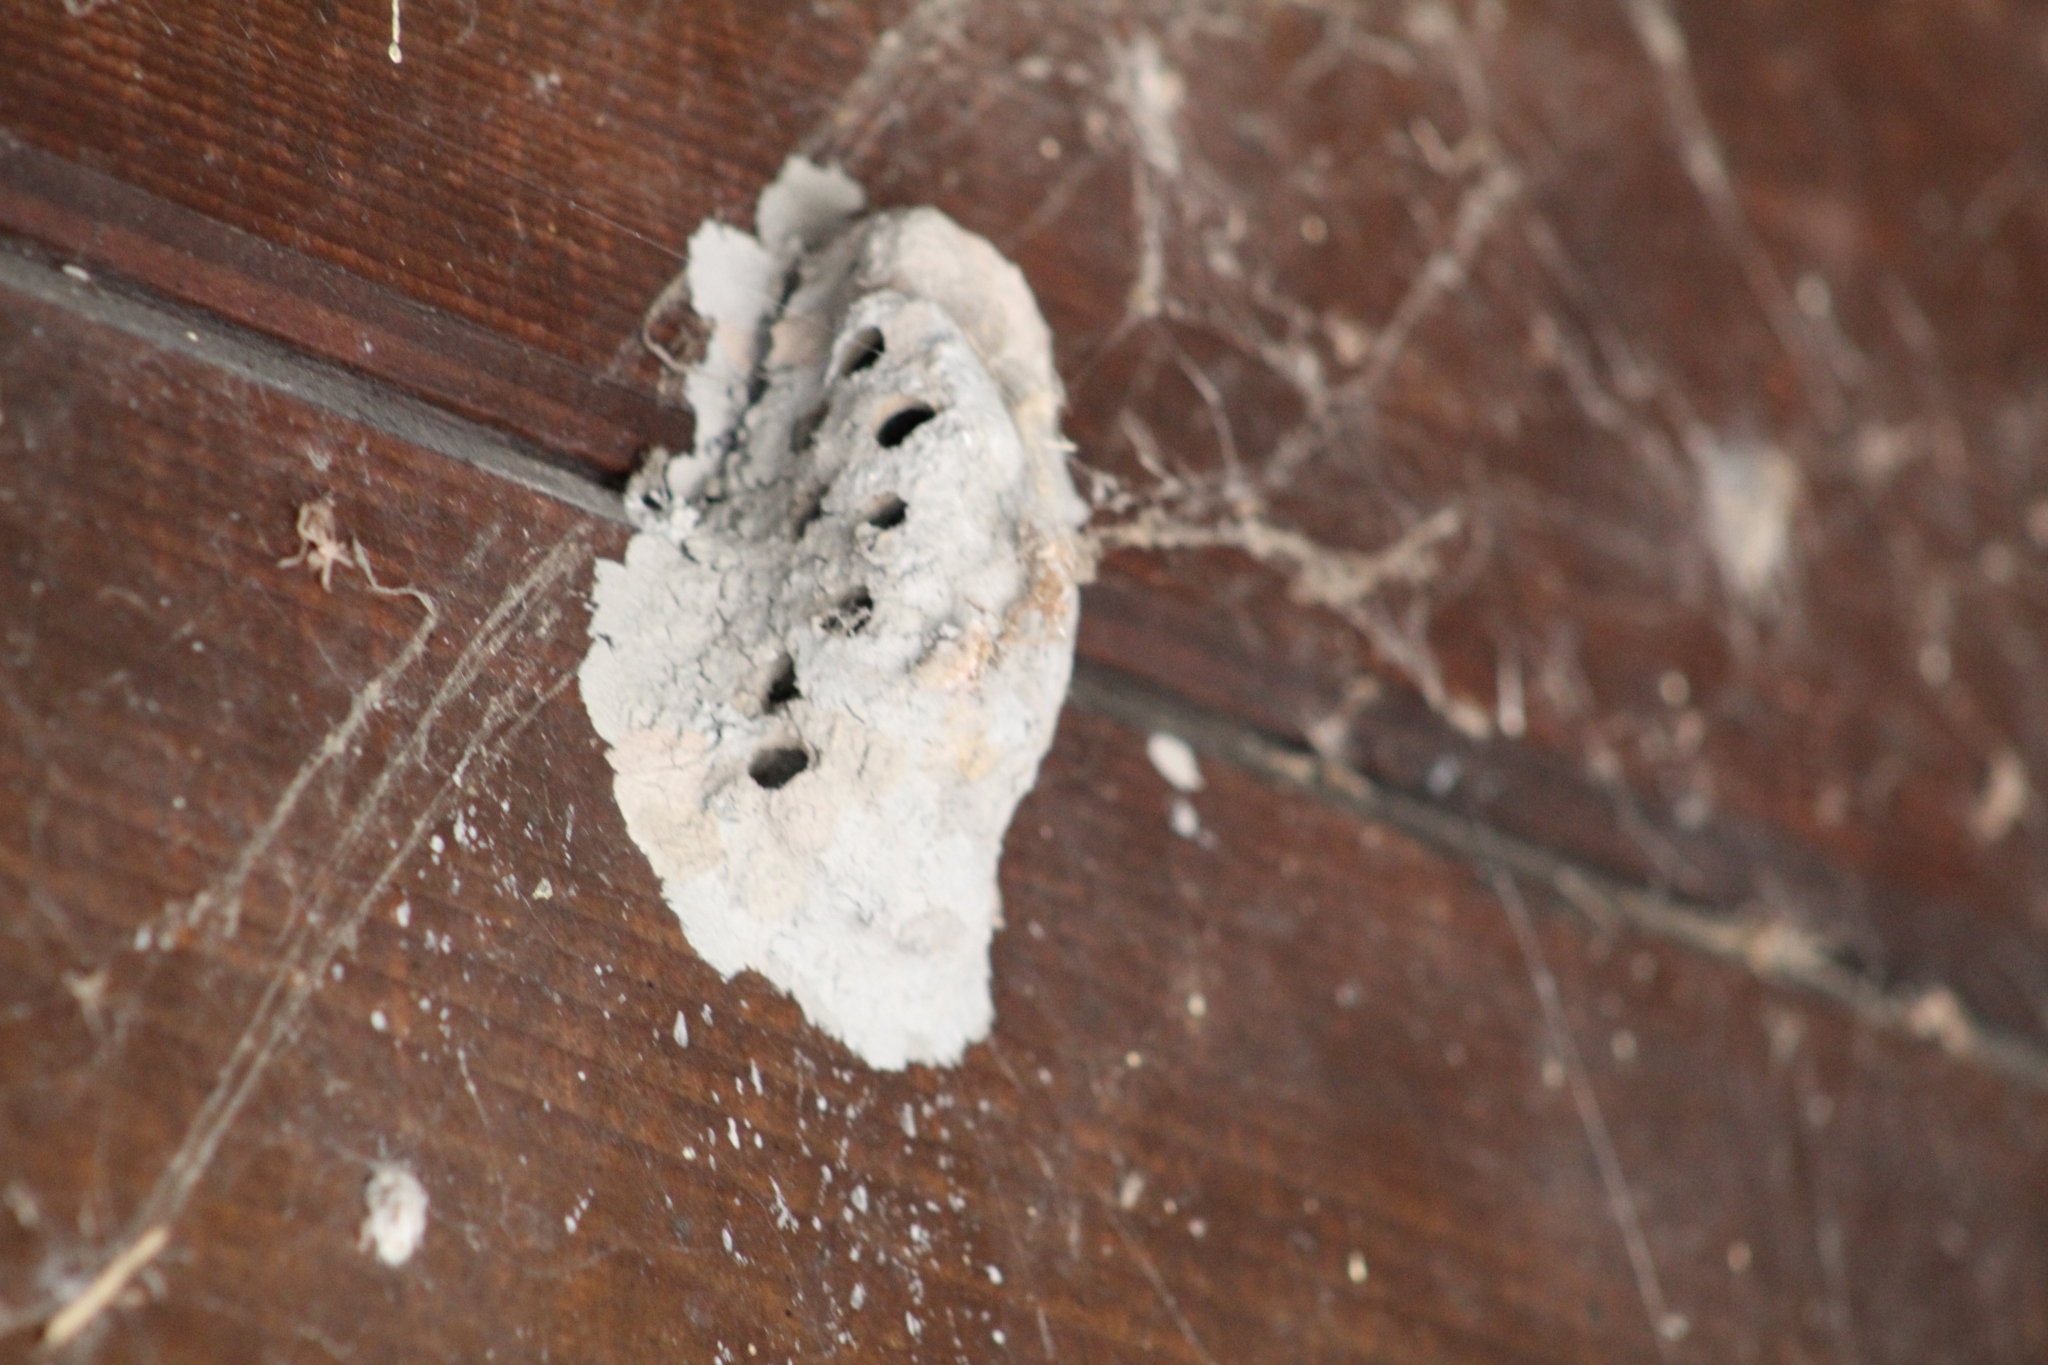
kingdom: Animalia
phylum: Arthropoda
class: Insecta
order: Hymenoptera
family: Sphecidae
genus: Sceliphron
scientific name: Sceliphron caementarium
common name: Mud dauber
